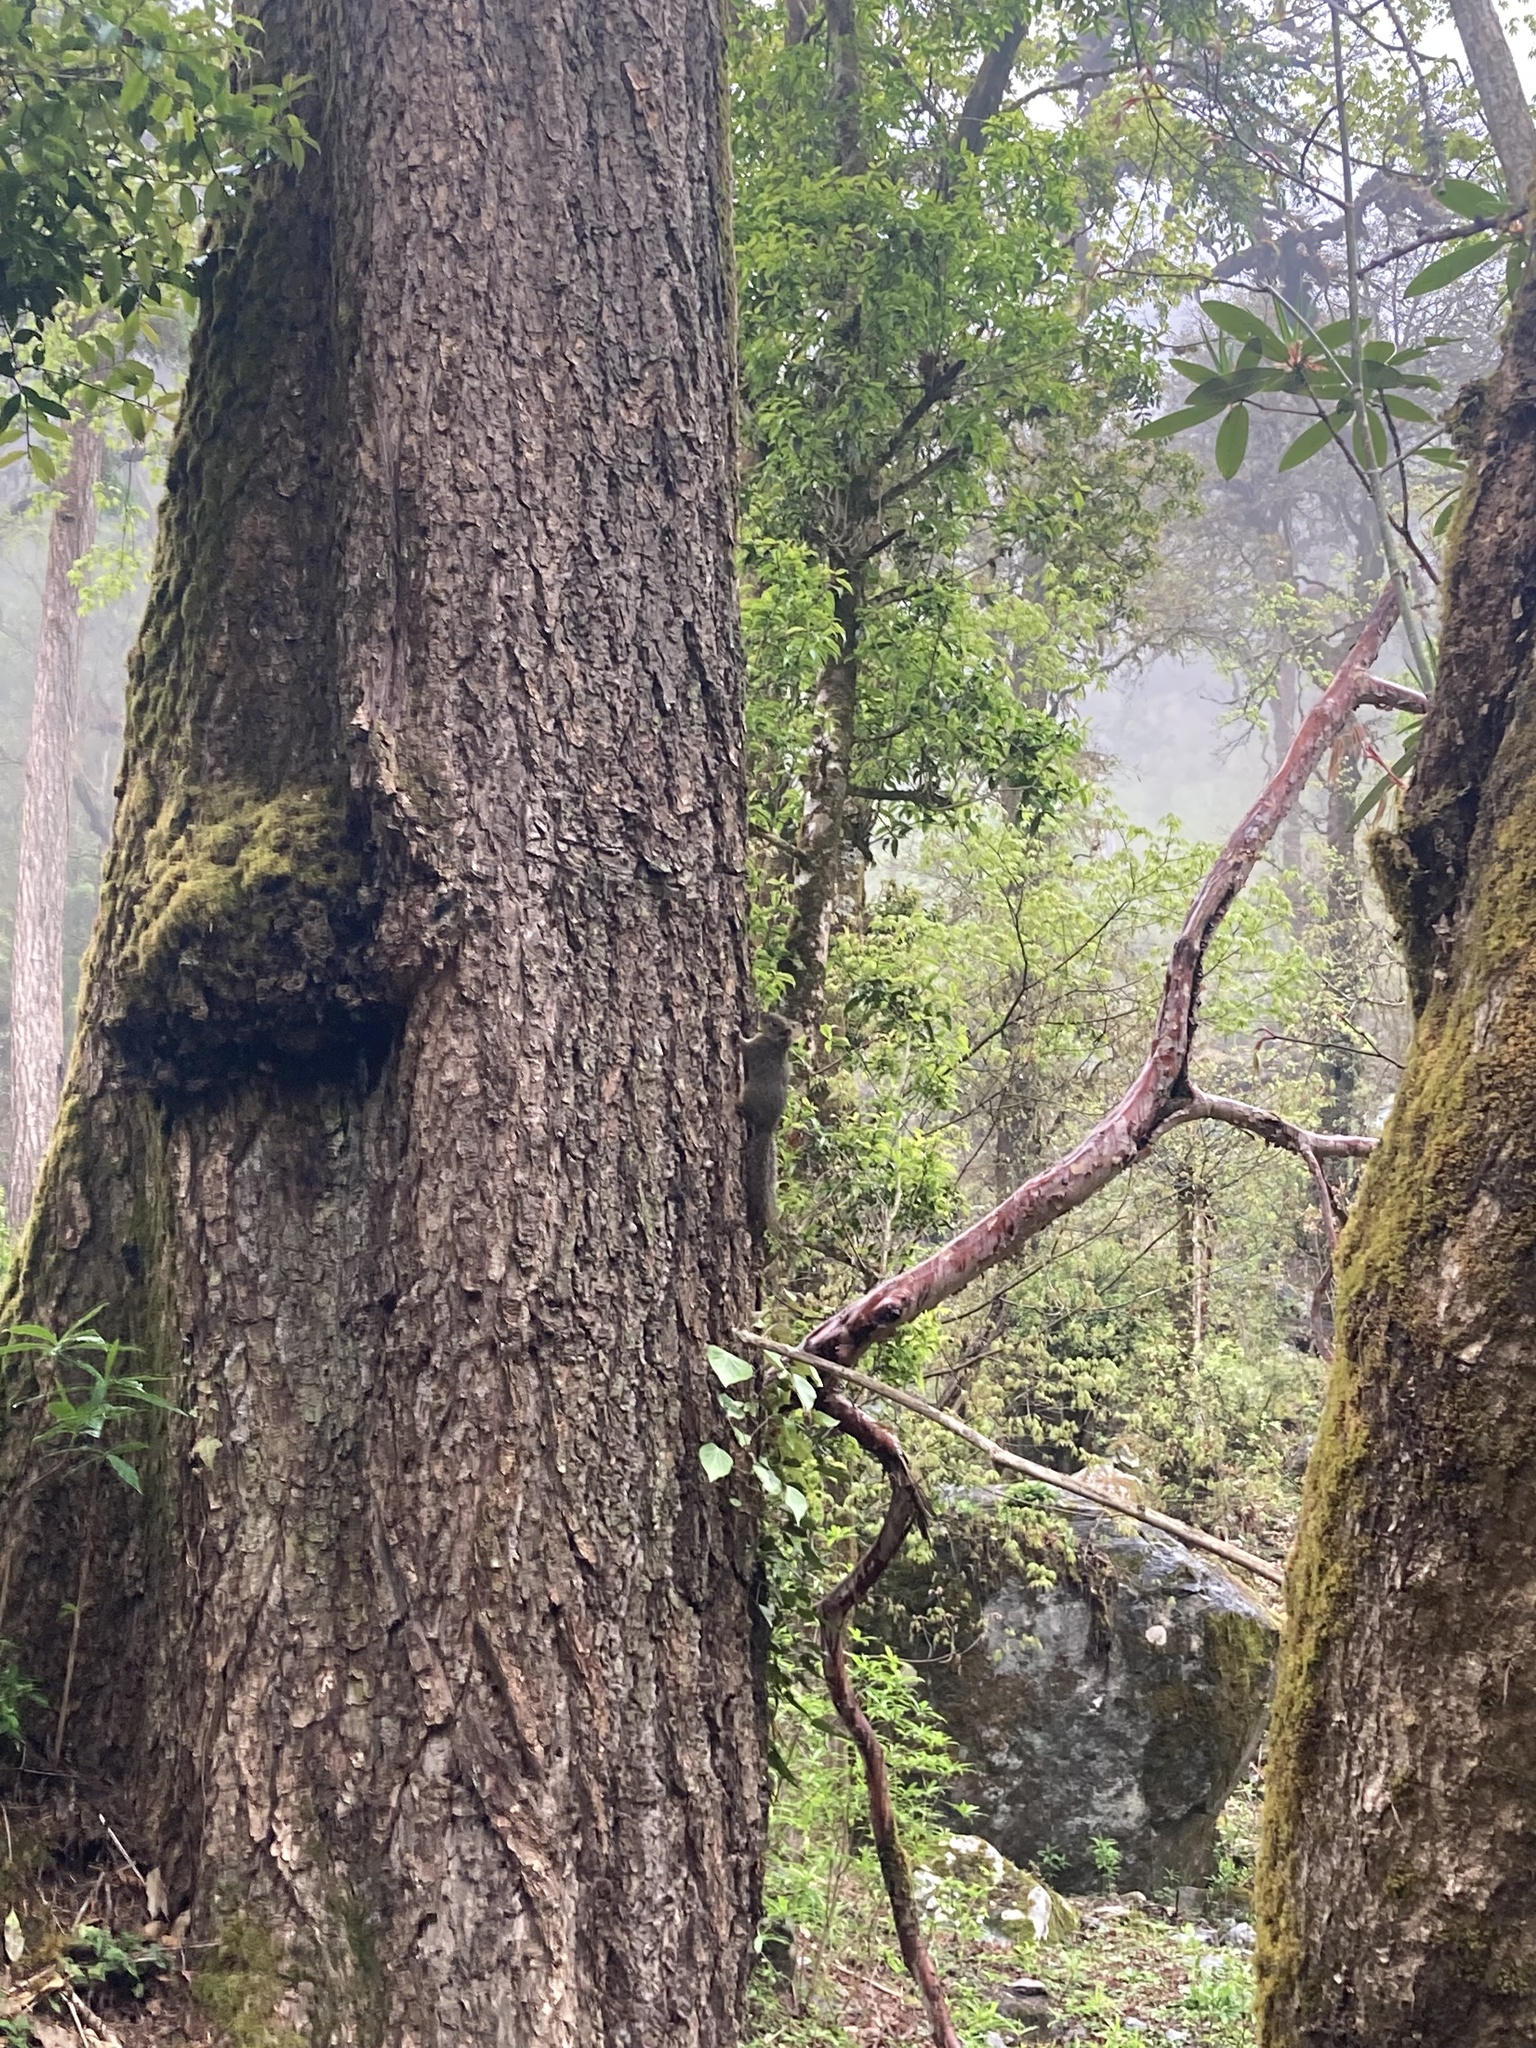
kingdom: Animalia
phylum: Chordata
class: Mammalia
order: Rodentia
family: Sciuridae
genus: Dremomys
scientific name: Dremomys lokriah
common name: Orange-bellied himalayan squirrel
